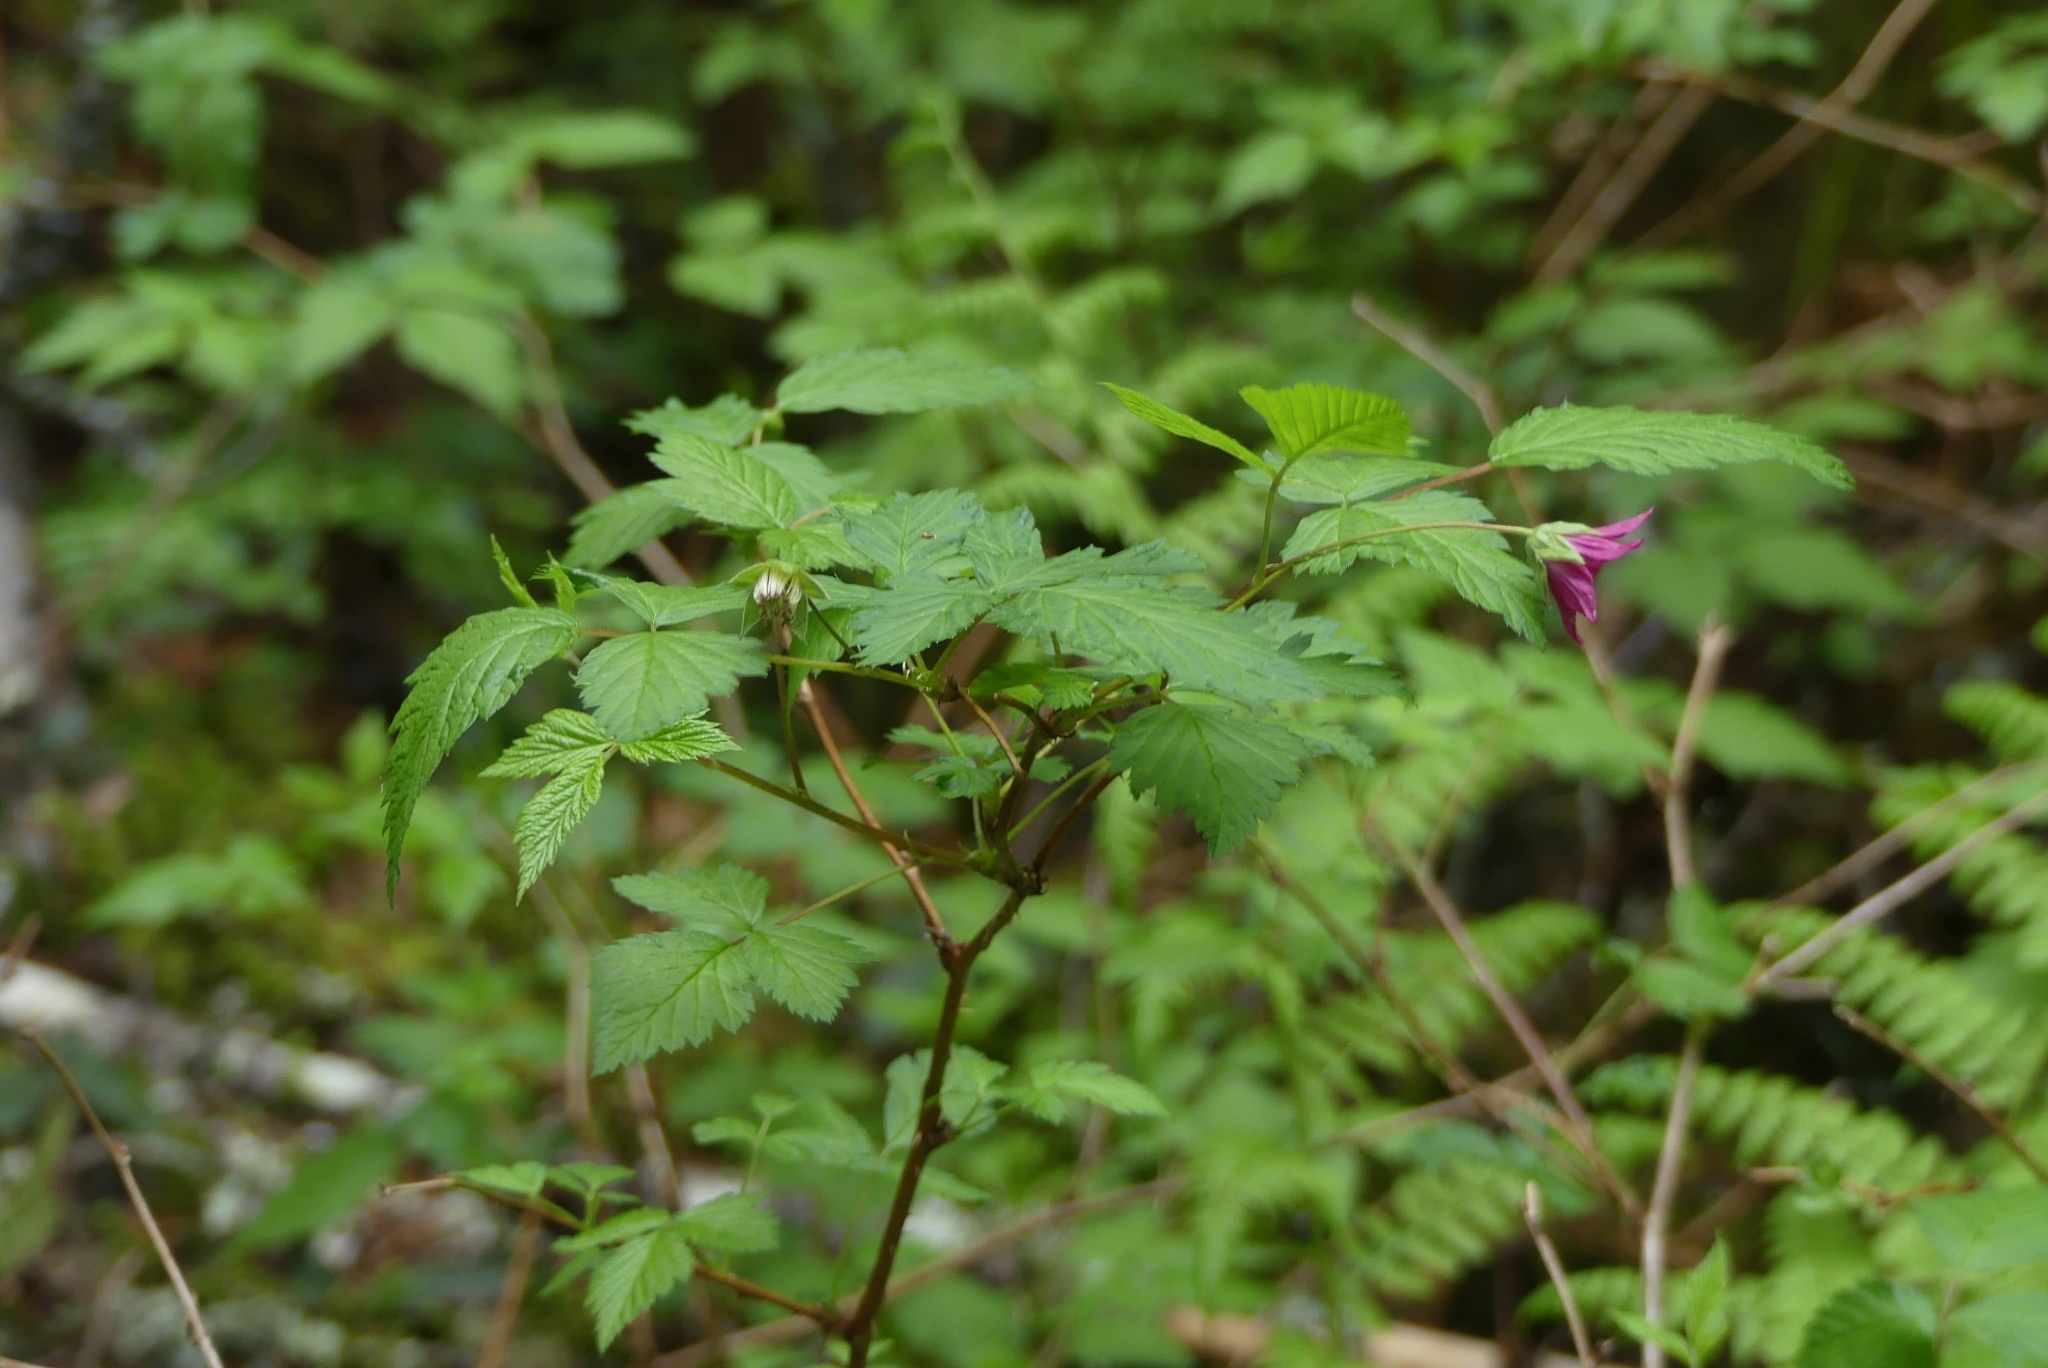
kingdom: Plantae
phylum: Tracheophyta
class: Magnoliopsida
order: Rosales
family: Rosaceae
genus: Rubus
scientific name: Rubus spectabilis
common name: Salmonberry
